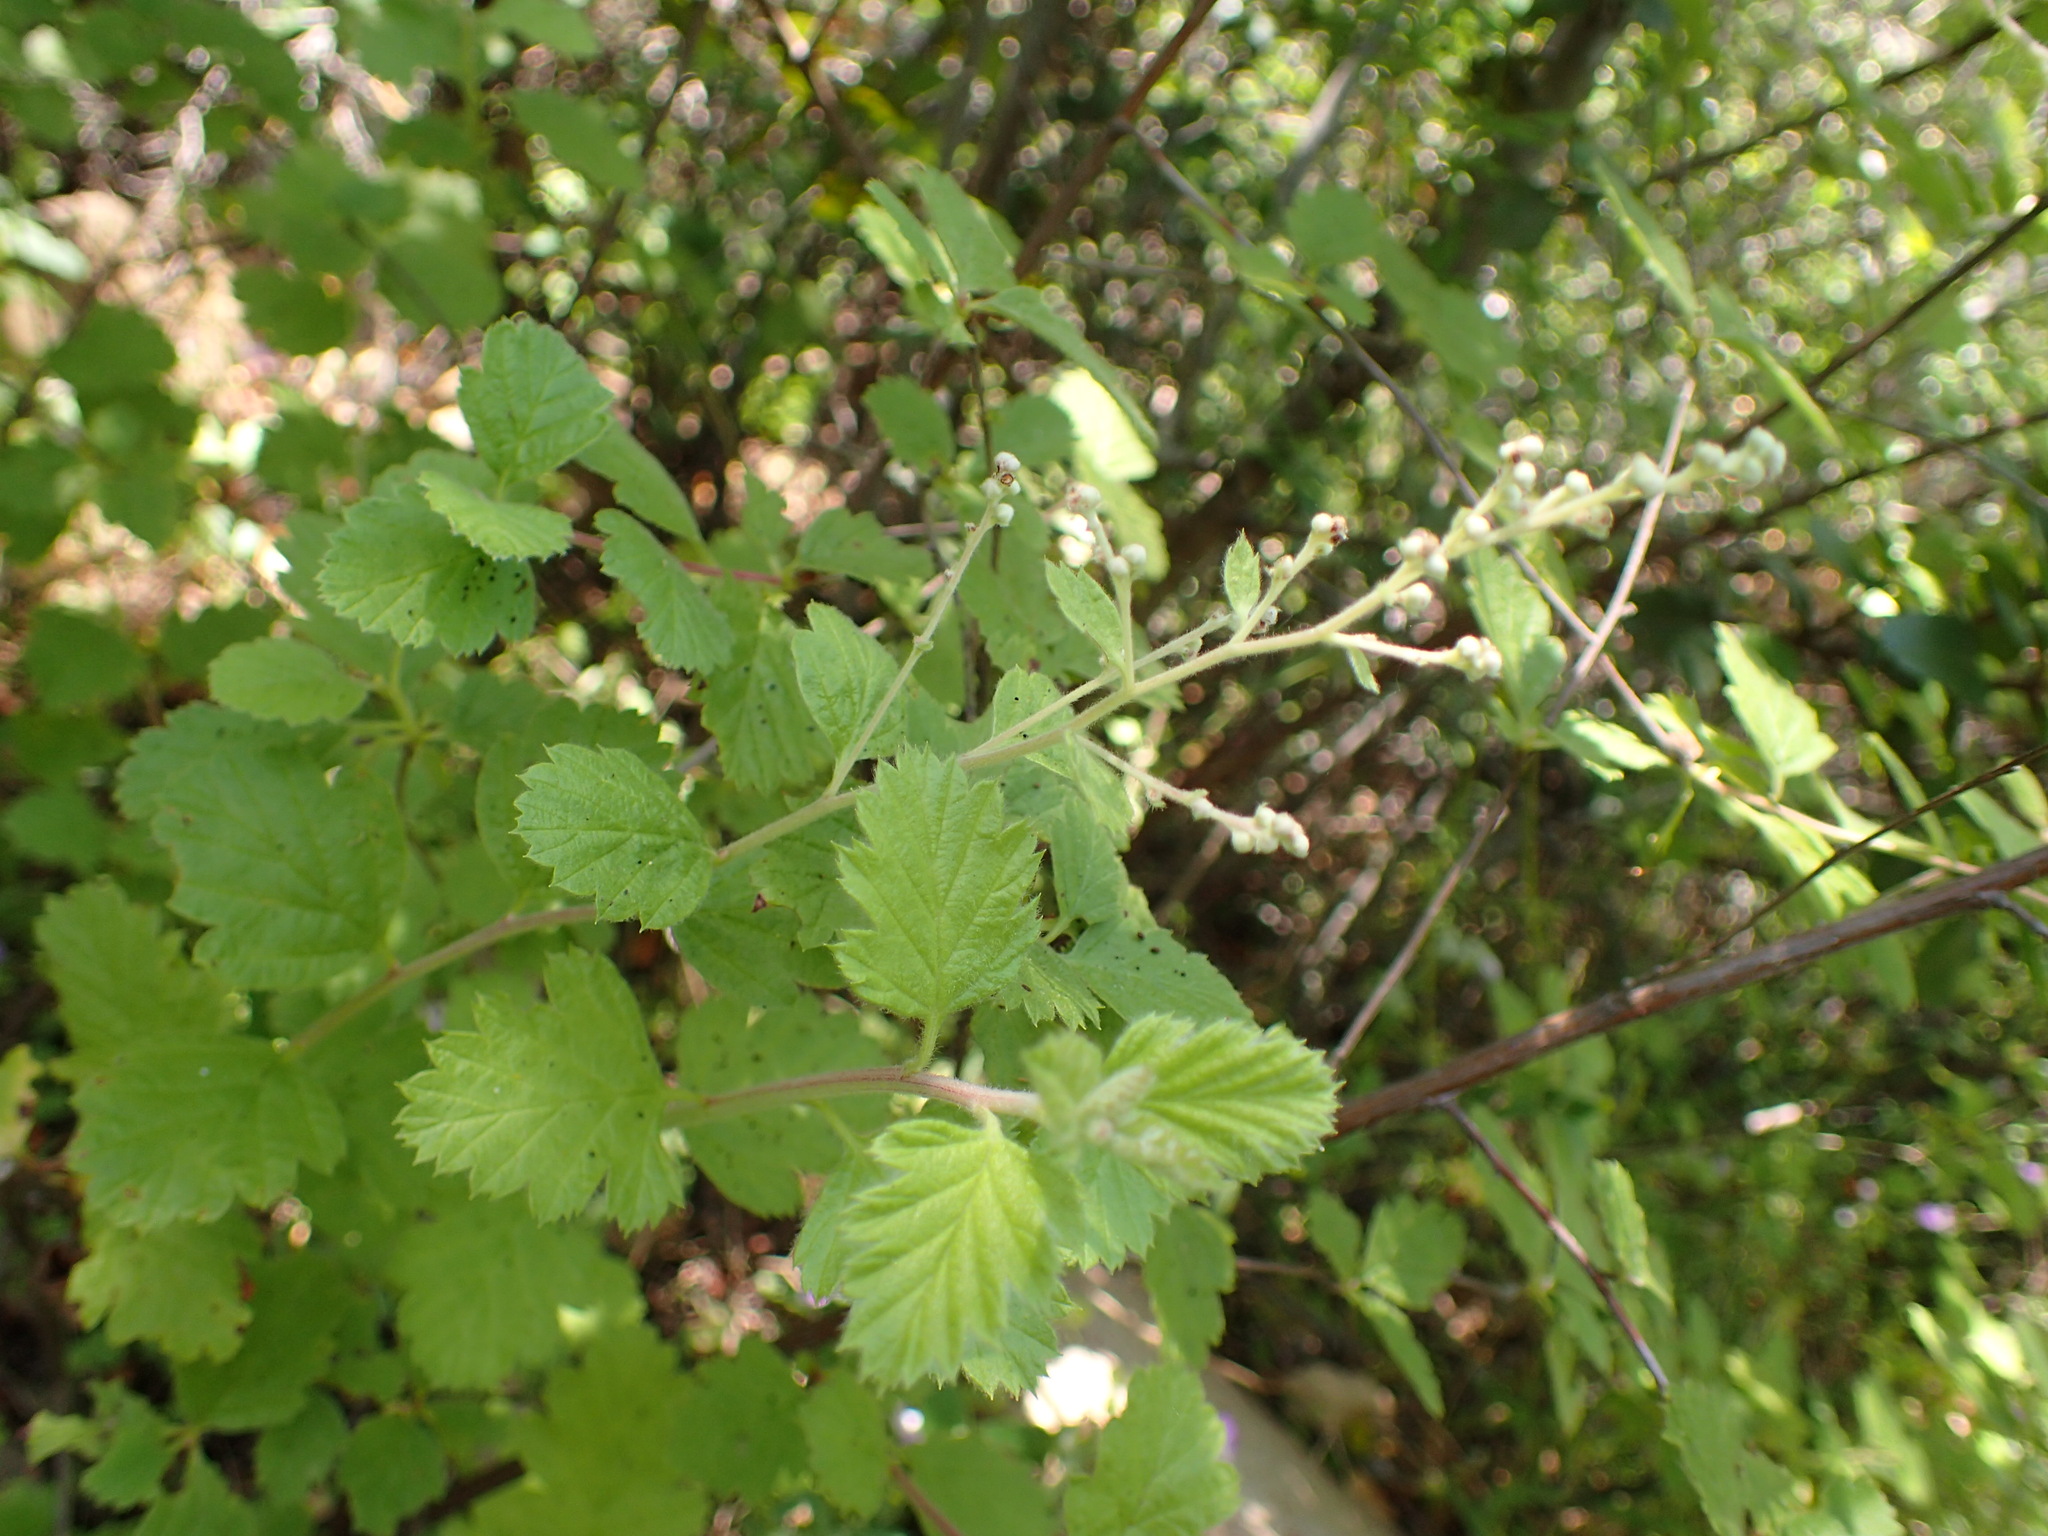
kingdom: Plantae
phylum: Tracheophyta
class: Magnoliopsida
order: Rosales
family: Rosaceae
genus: Holodiscus
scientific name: Holodiscus discolor
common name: Oceanspray
